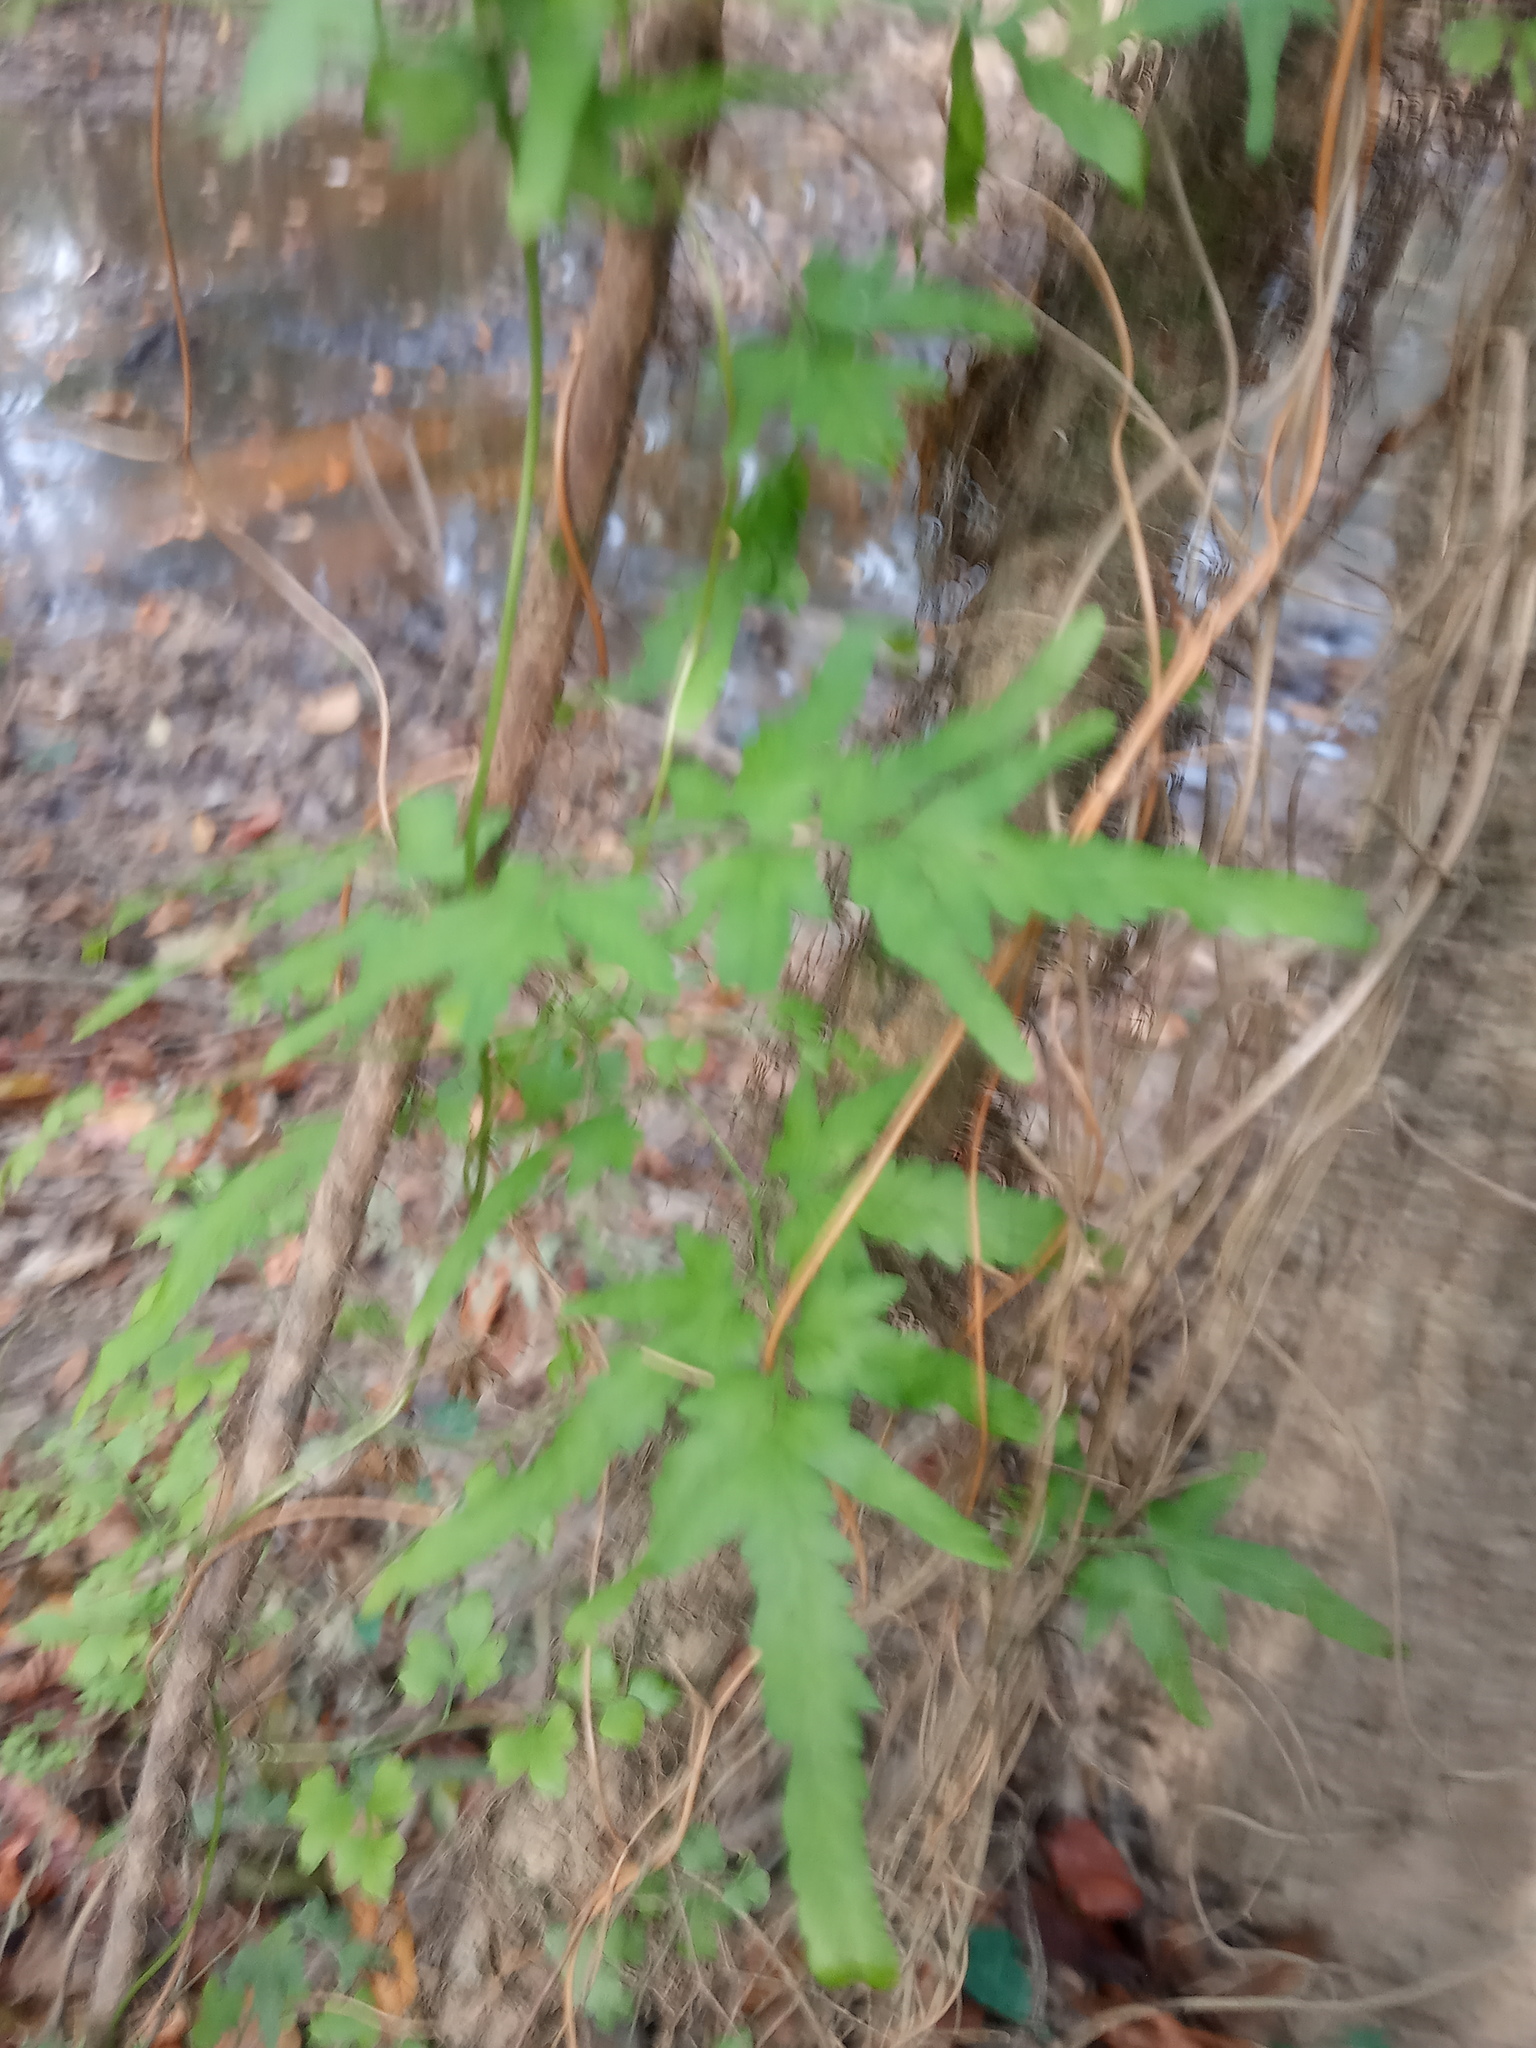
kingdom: Plantae
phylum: Tracheophyta
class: Polypodiopsida
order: Schizaeales
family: Lygodiaceae
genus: Lygodium
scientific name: Lygodium japonicum
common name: Japanese climbing fern
